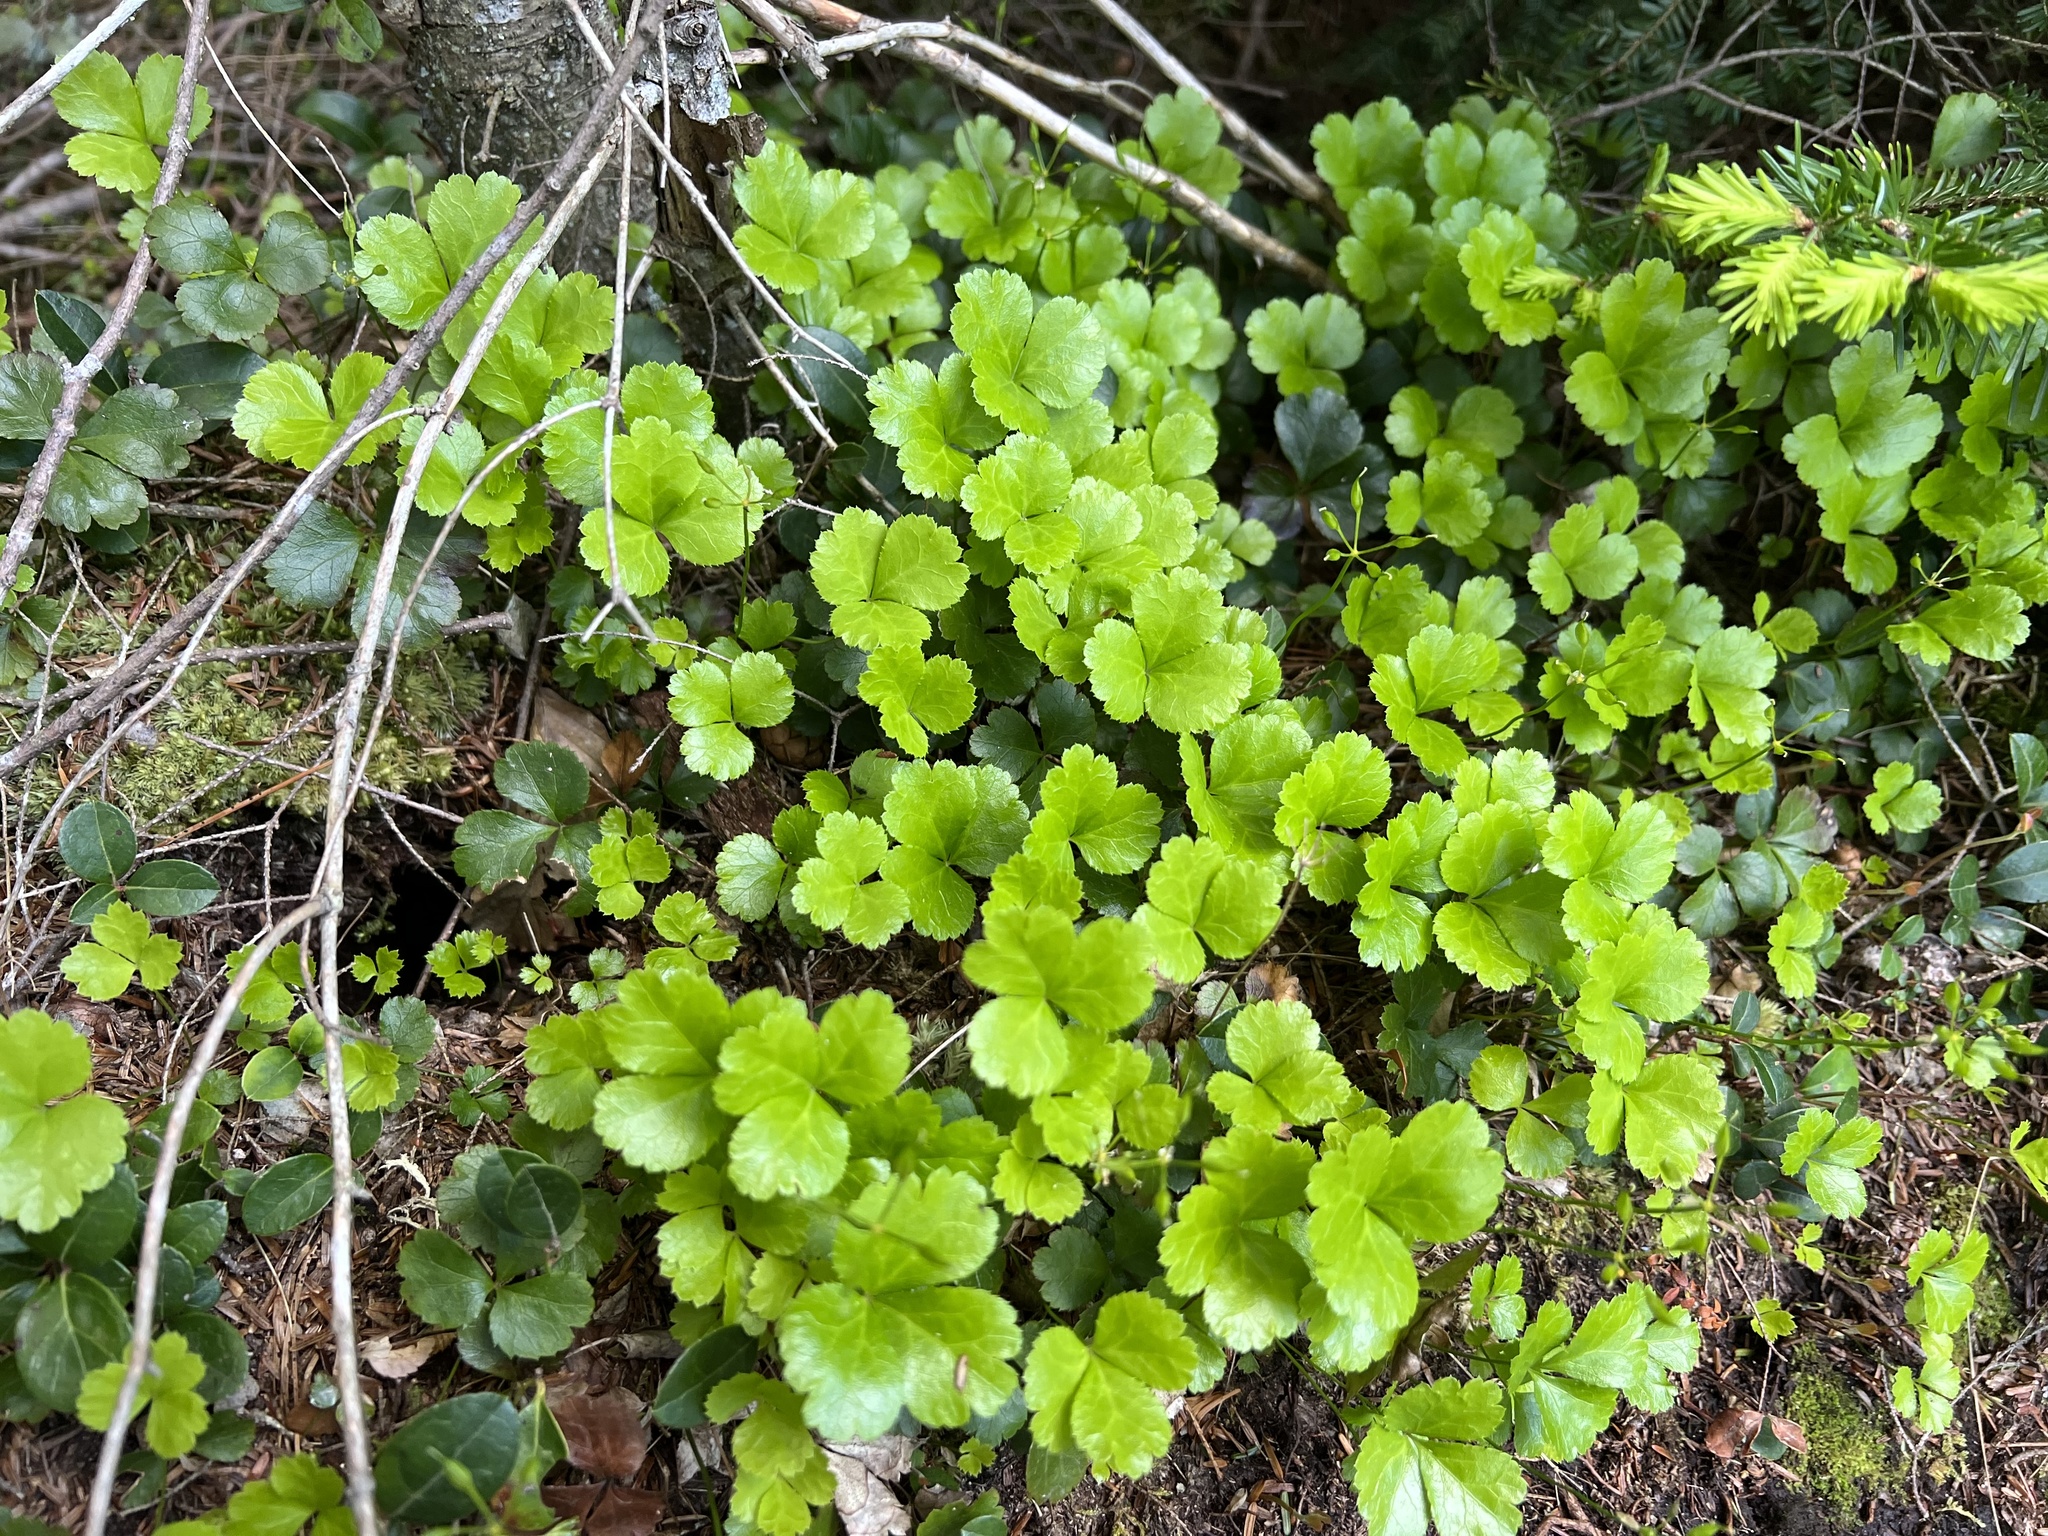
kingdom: Plantae
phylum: Tracheophyta
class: Magnoliopsida
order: Ranunculales
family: Ranunculaceae
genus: Coptis
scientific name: Coptis trifolia
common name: Canker-root
